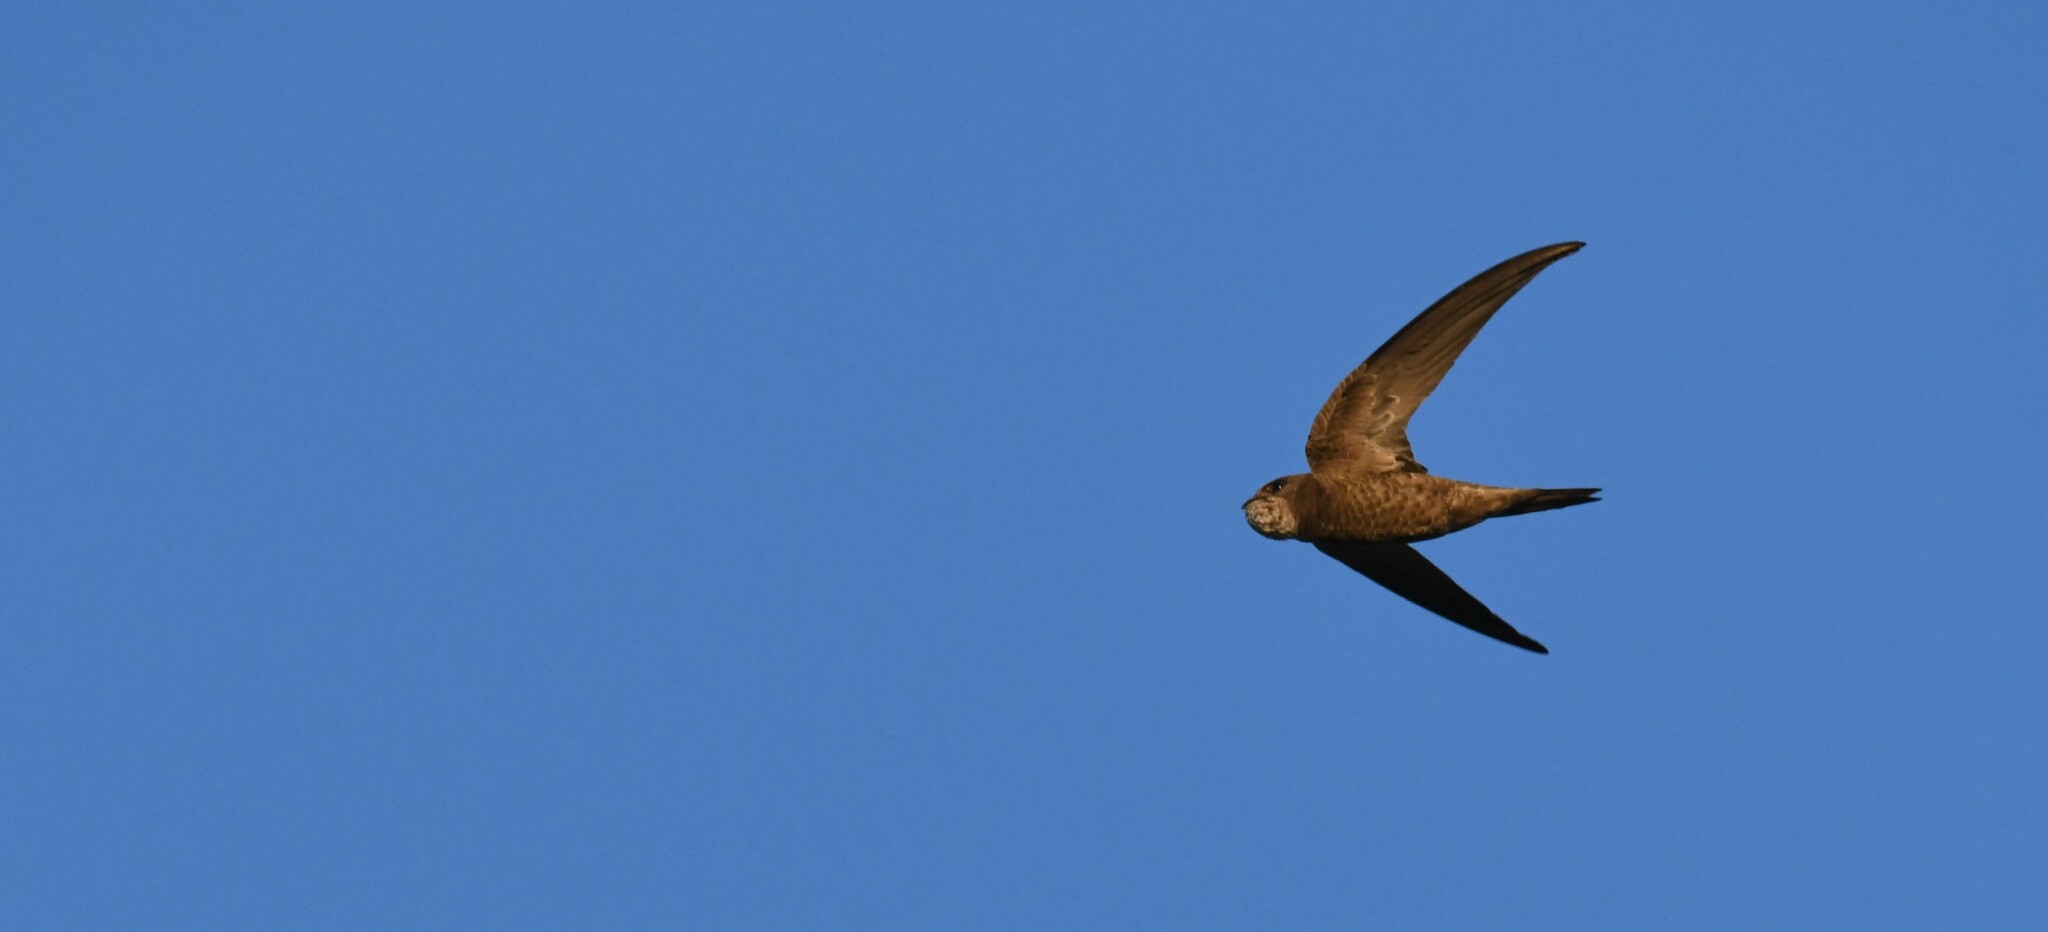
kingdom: Animalia
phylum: Chordata
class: Aves
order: Apodiformes
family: Apodidae
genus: Apus
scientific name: Apus pallidus
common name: Pallid swift
